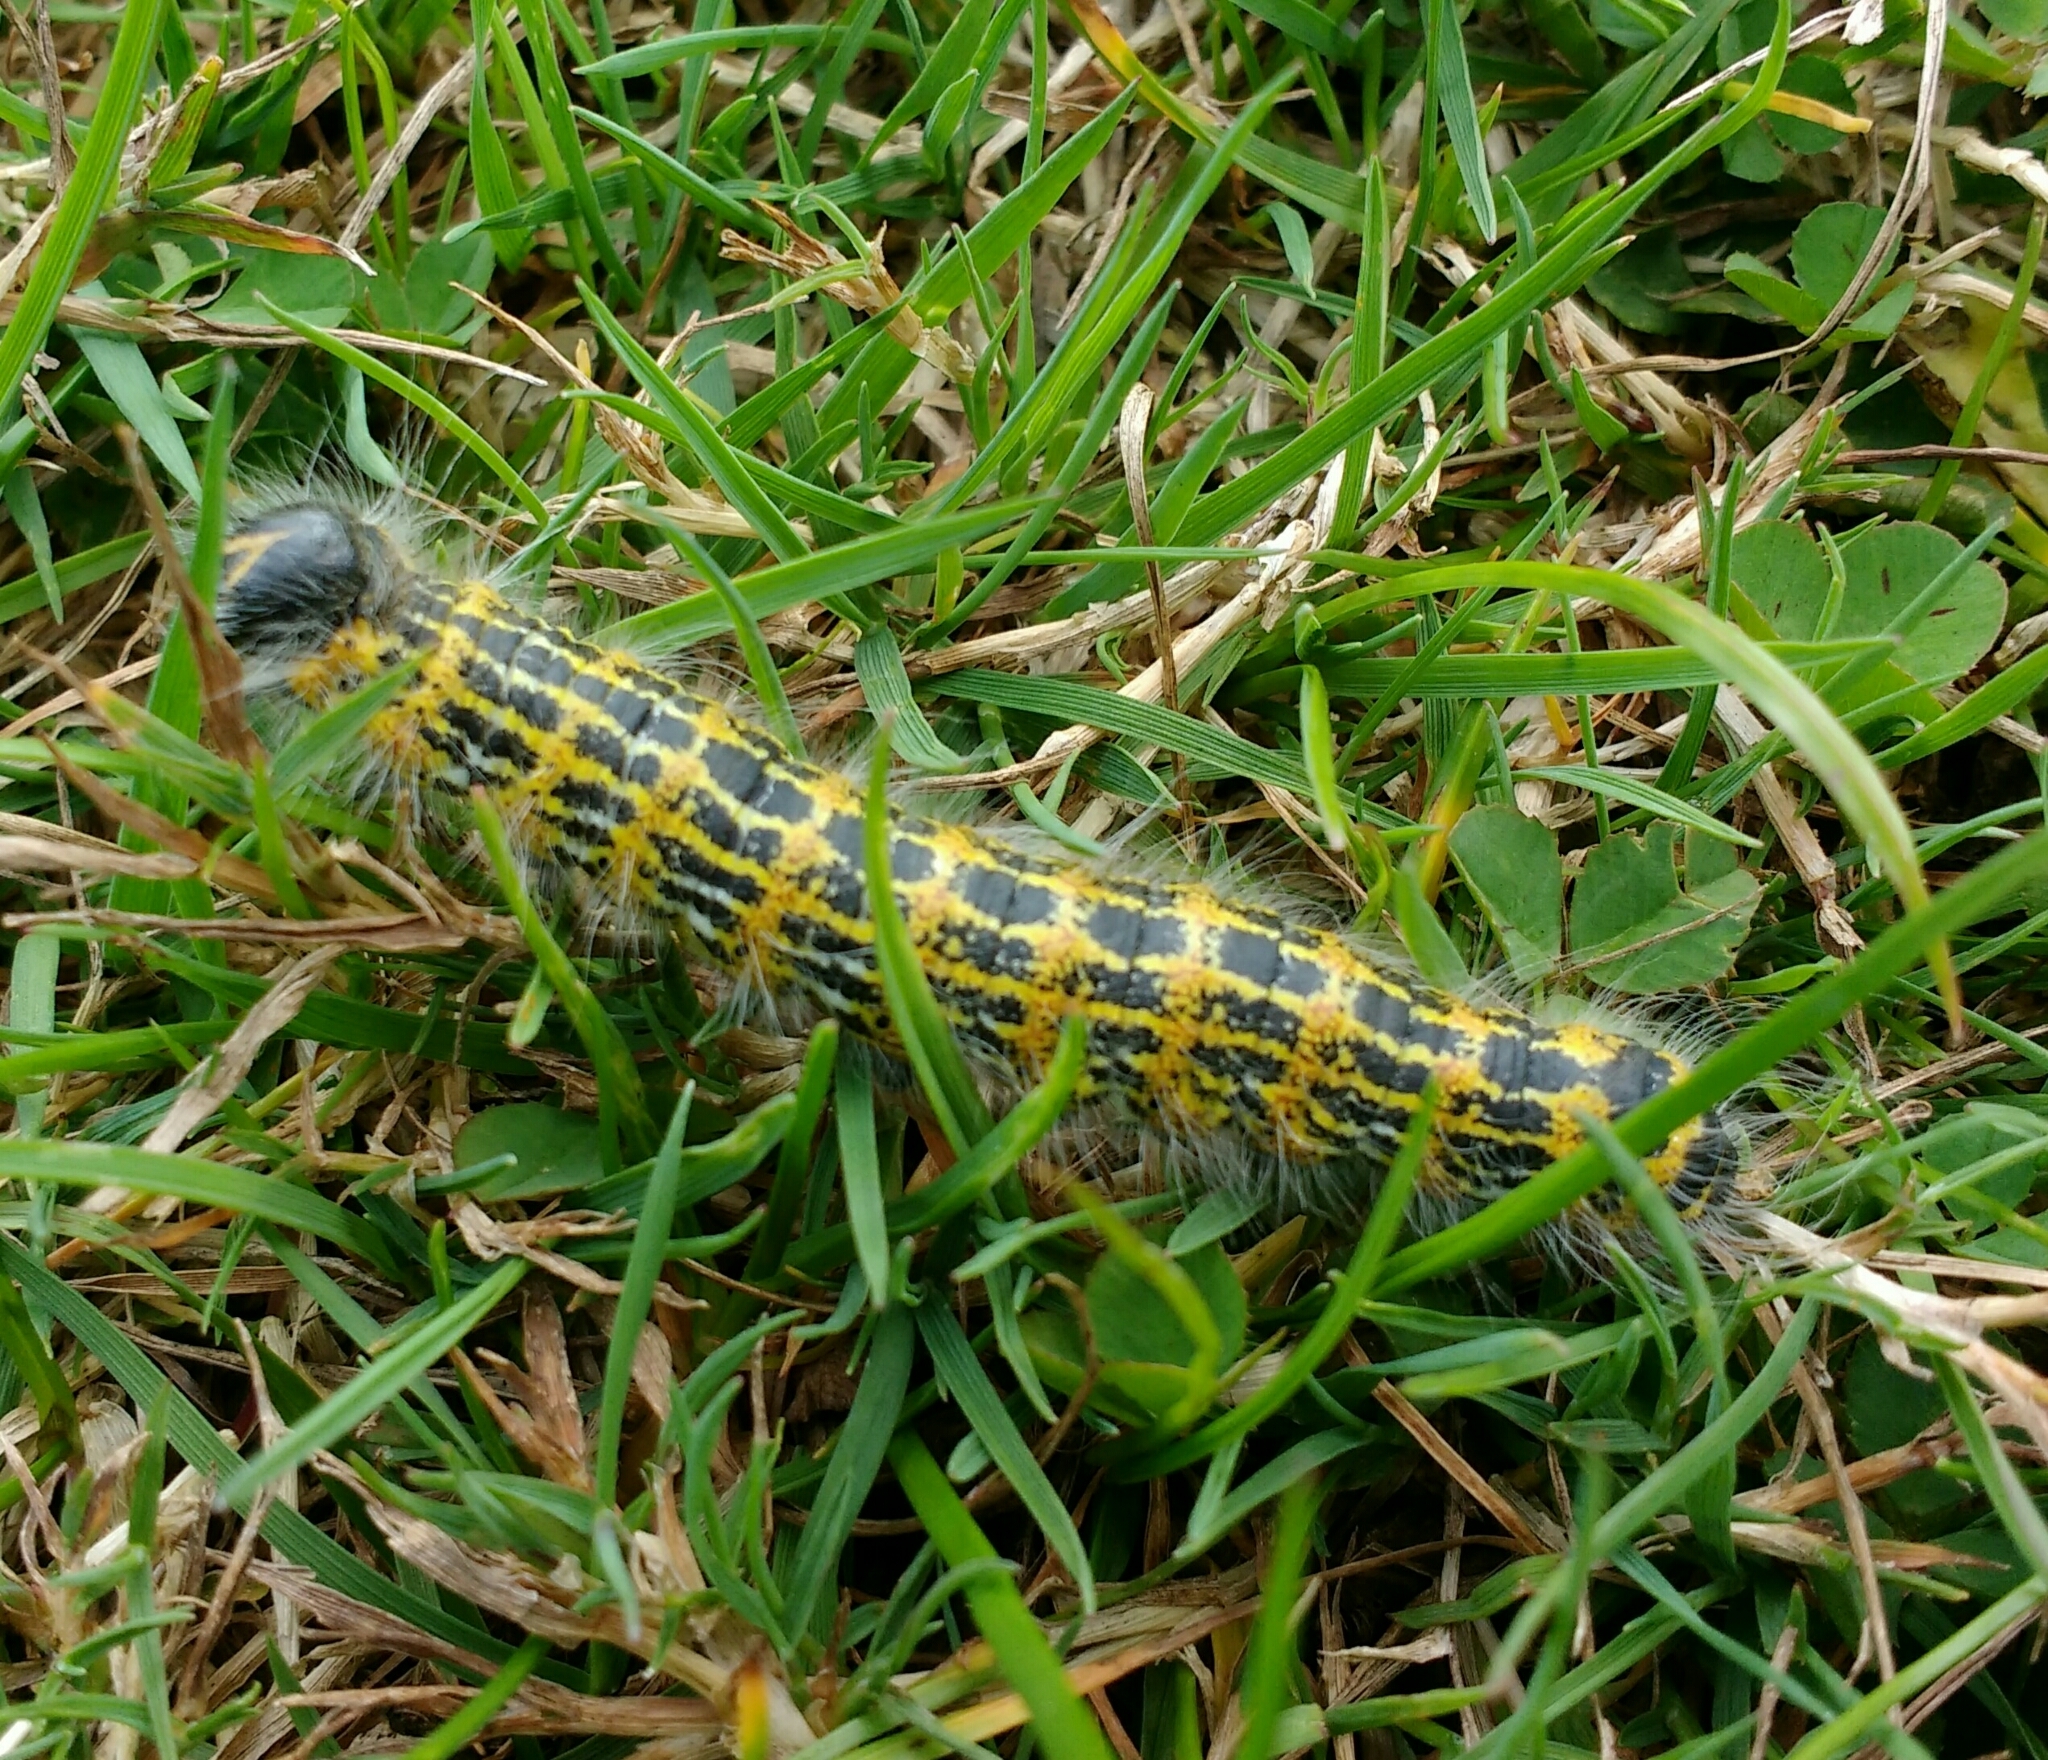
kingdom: Animalia
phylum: Arthropoda
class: Insecta
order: Lepidoptera
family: Notodontidae
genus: Phalera
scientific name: Phalera bucephala
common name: Buff-tip
